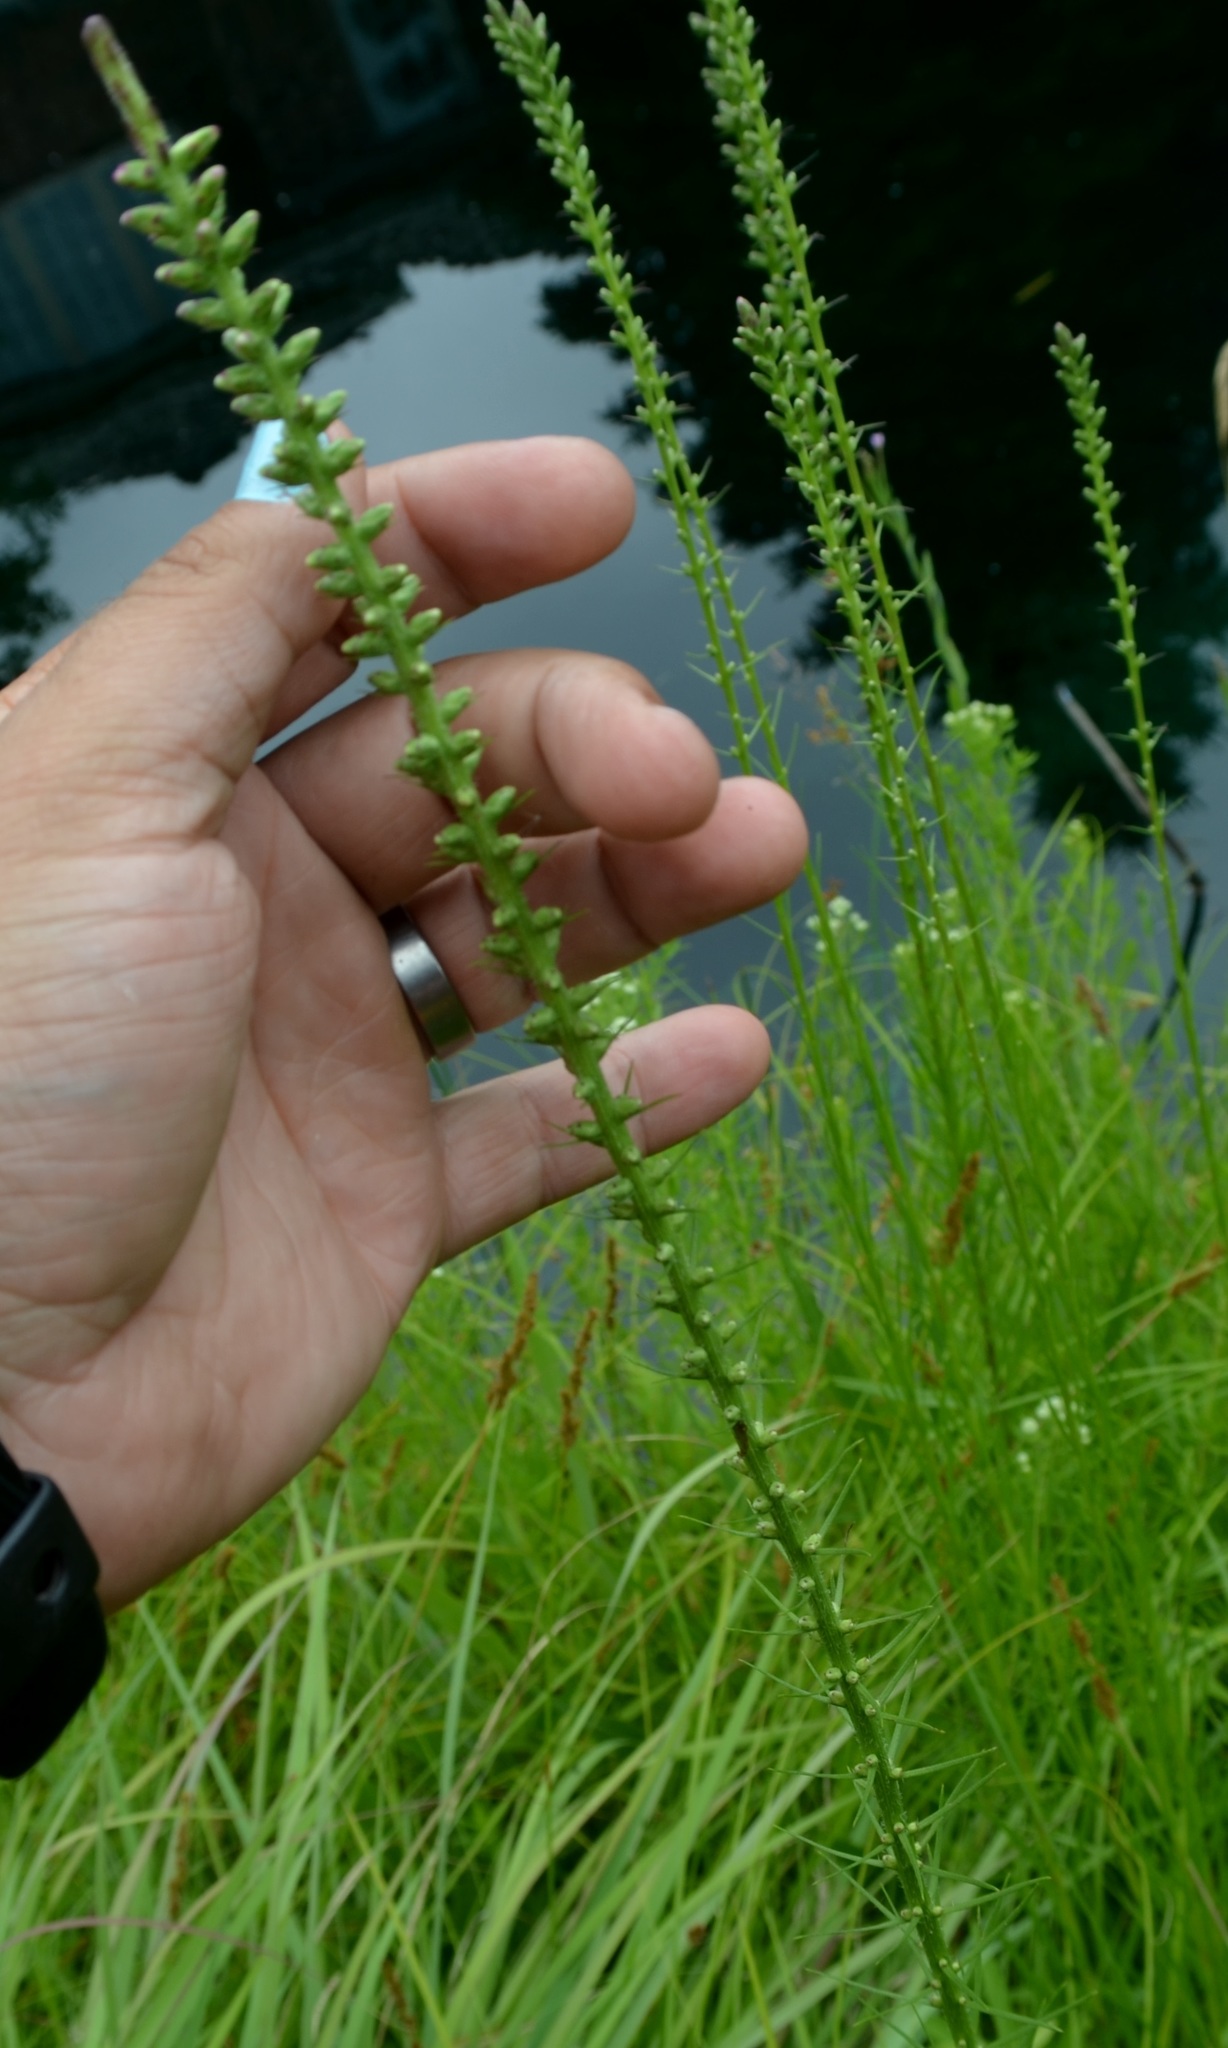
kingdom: Plantae
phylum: Tracheophyta
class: Magnoliopsida
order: Asterales
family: Asteraceae
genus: Liatris
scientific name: Liatris spicata
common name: Florist gayfeather
